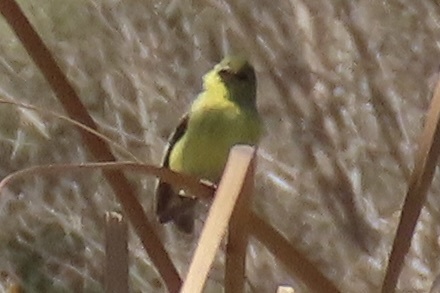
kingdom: Animalia
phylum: Chordata
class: Aves
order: Passeriformes
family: Fringillidae
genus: Spinus
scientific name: Spinus psaltria
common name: Lesser goldfinch
